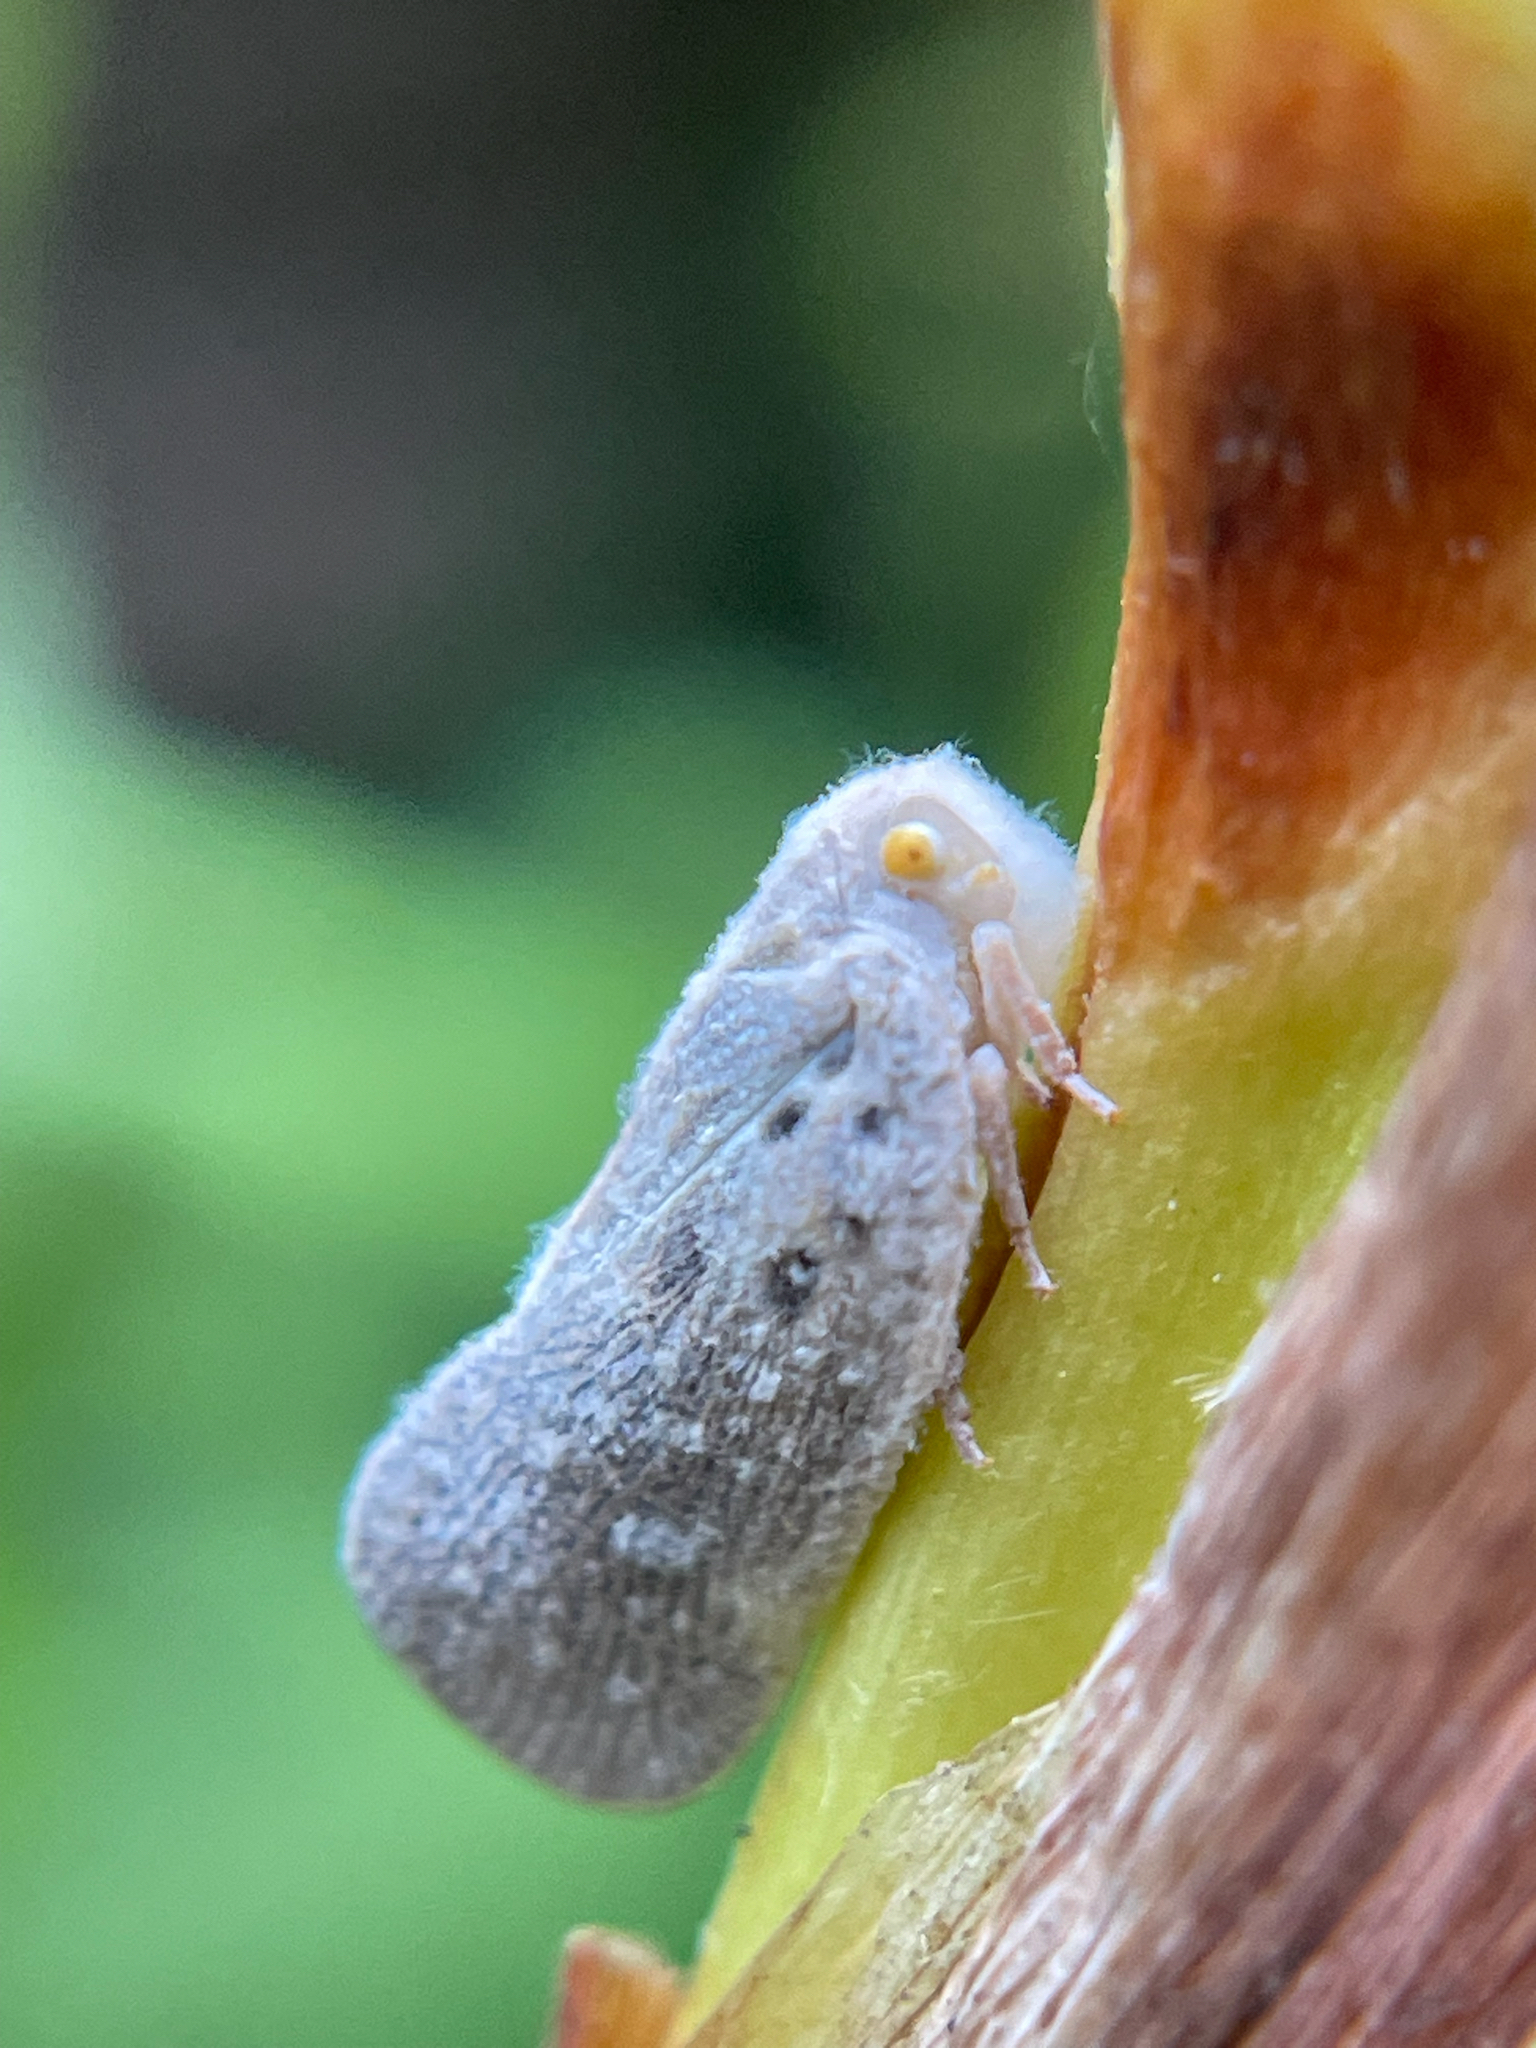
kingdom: Animalia
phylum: Arthropoda
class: Insecta
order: Hemiptera
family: Flatidae
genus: Metcalfa
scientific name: Metcalfa pruinosa
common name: Citrus flatid planthopper
